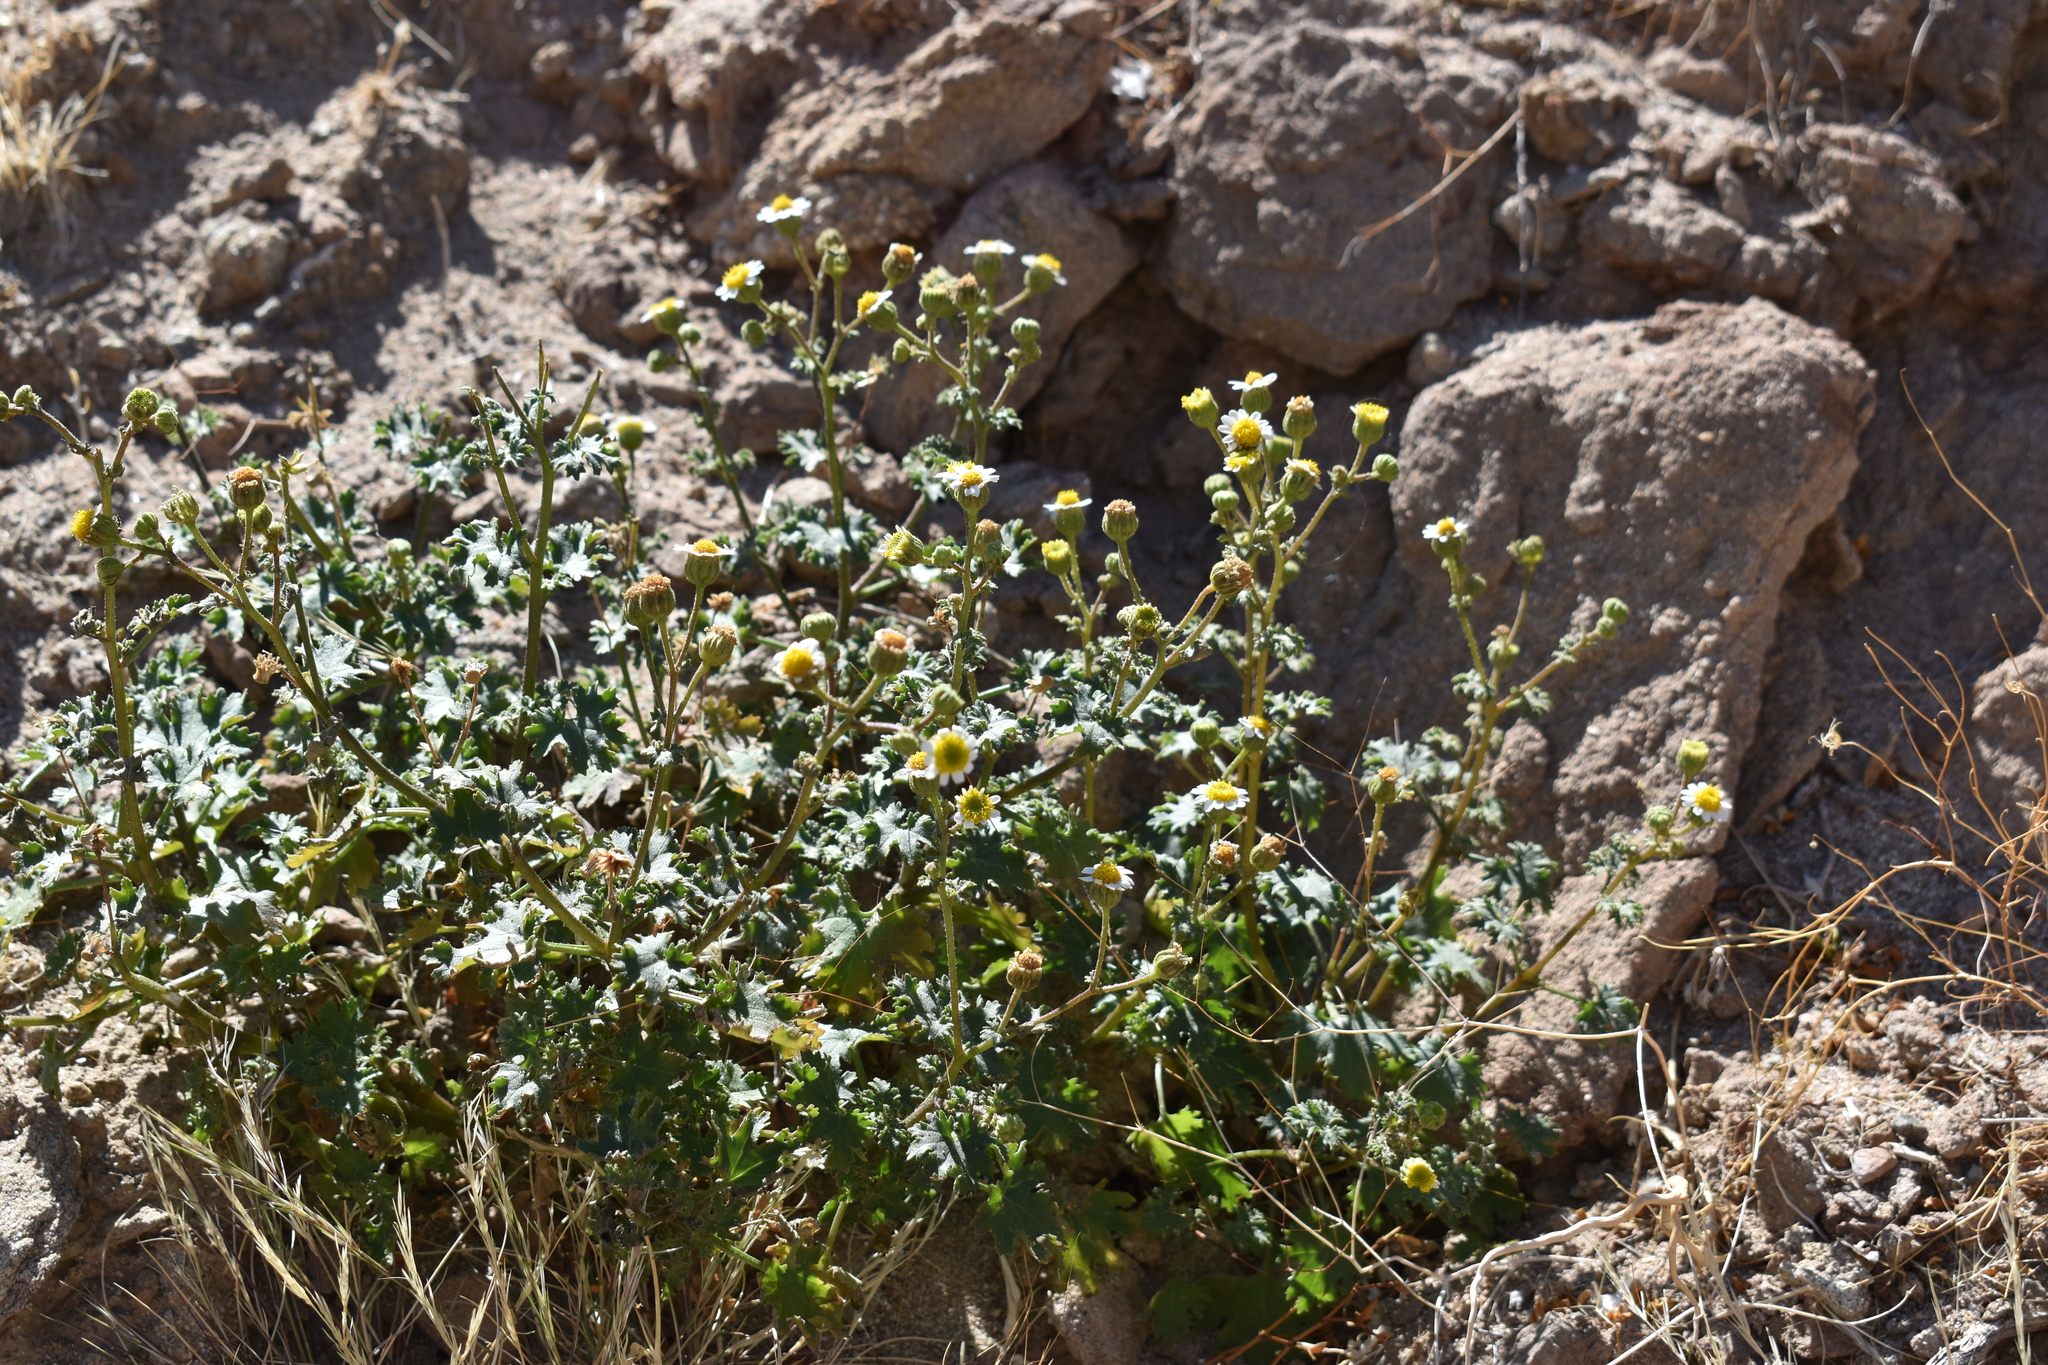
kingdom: Plantae
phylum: Tracheophyta
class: Magnoliopsida
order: Asterales
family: Asteraceae
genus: Laphamia
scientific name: Laphamia emoryi
